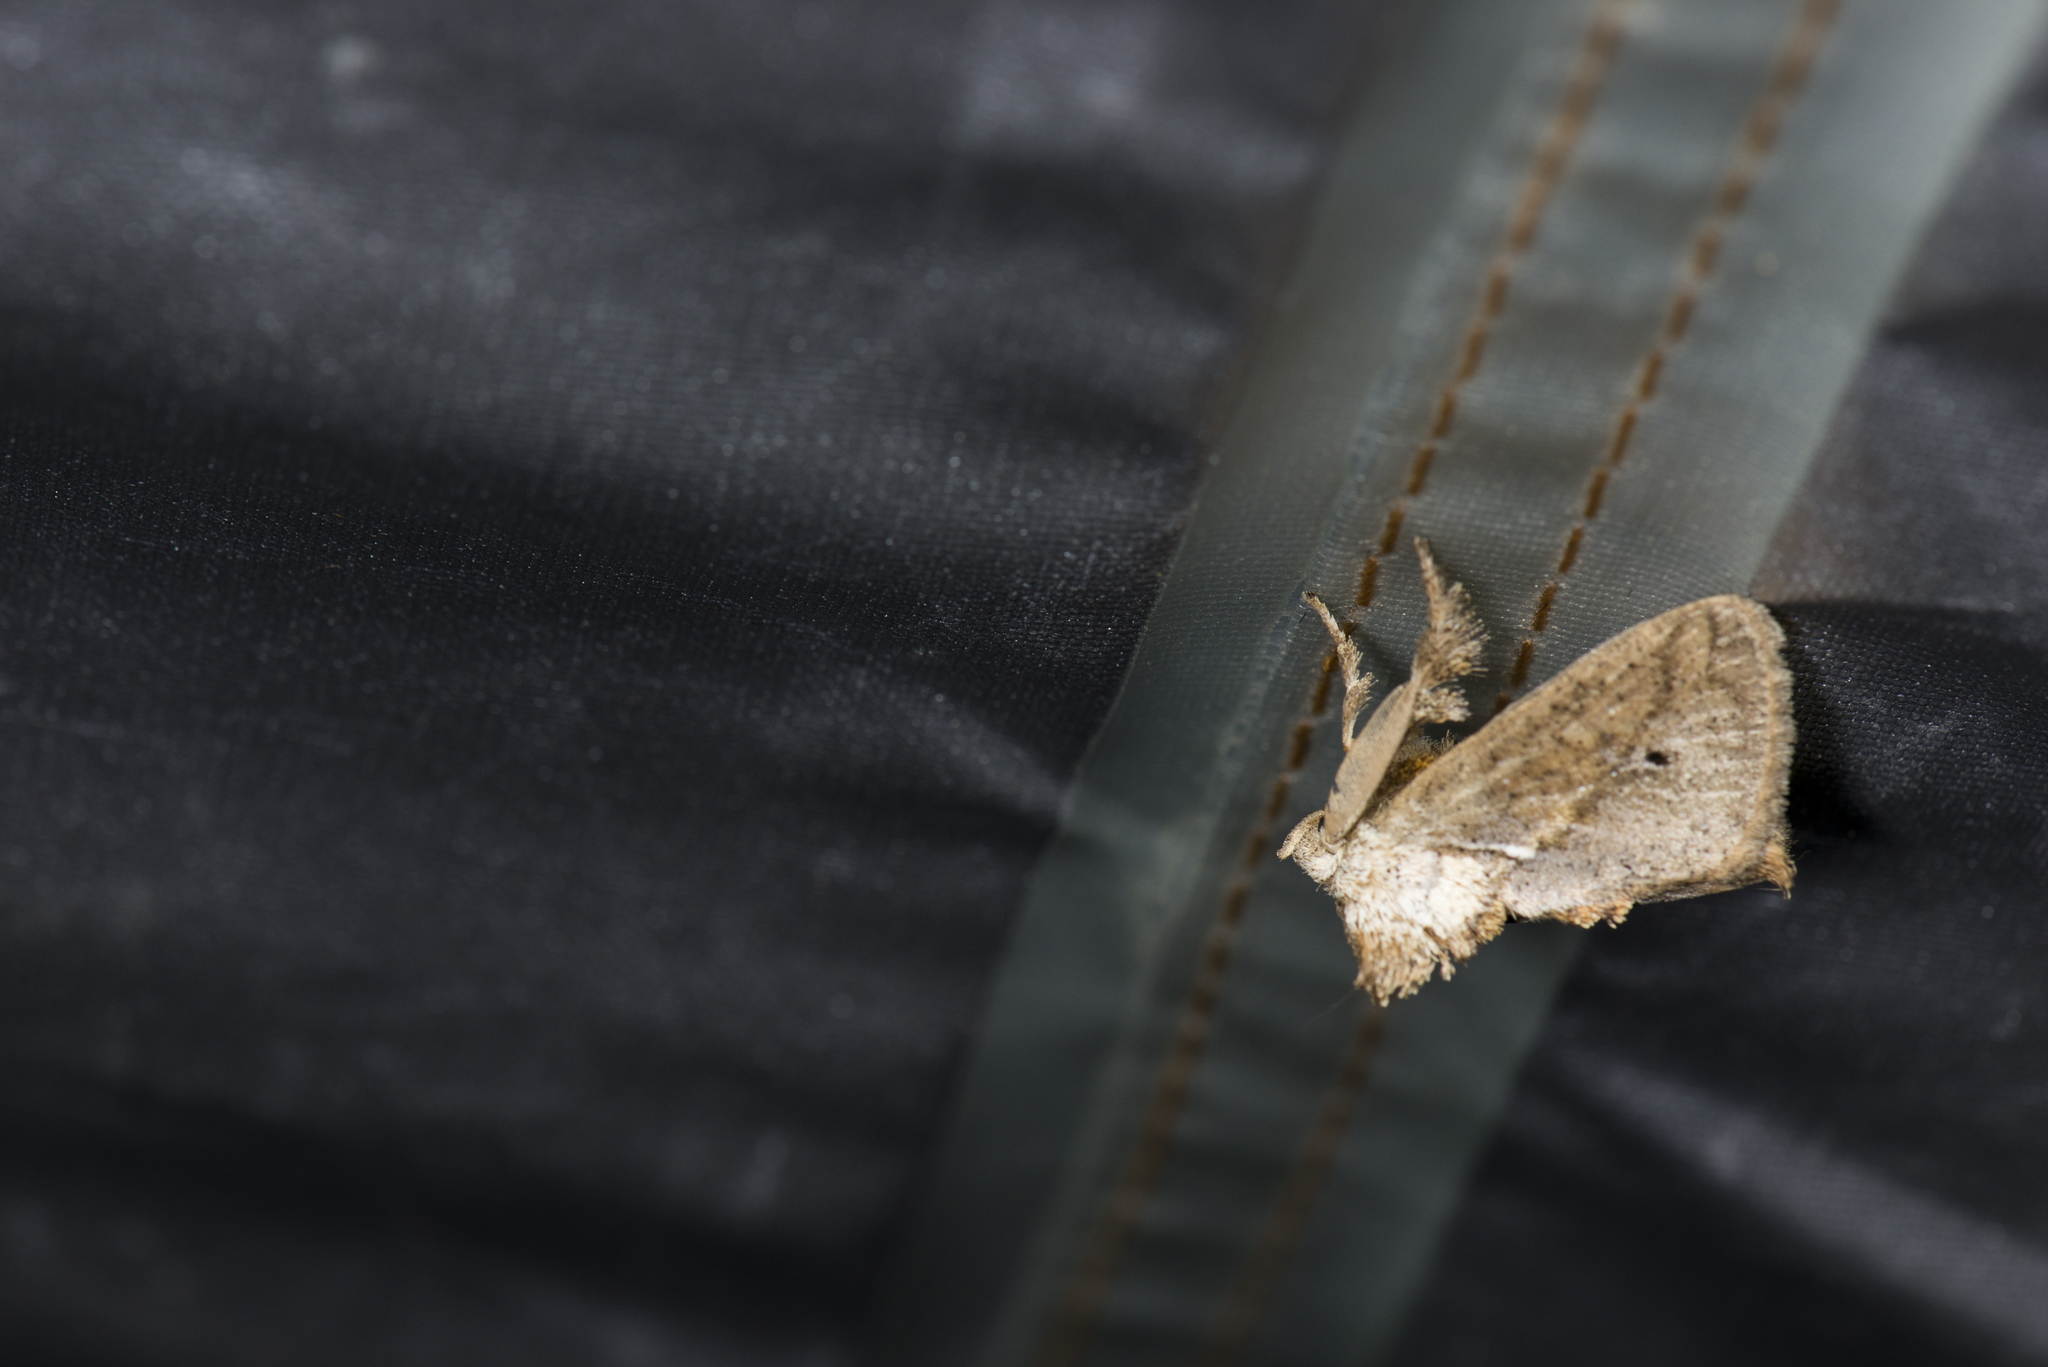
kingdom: Animalia
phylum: Arthropoda
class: Insecta
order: Lepidoptera
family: Limacodidae
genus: Susica
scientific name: Susica sinensis
